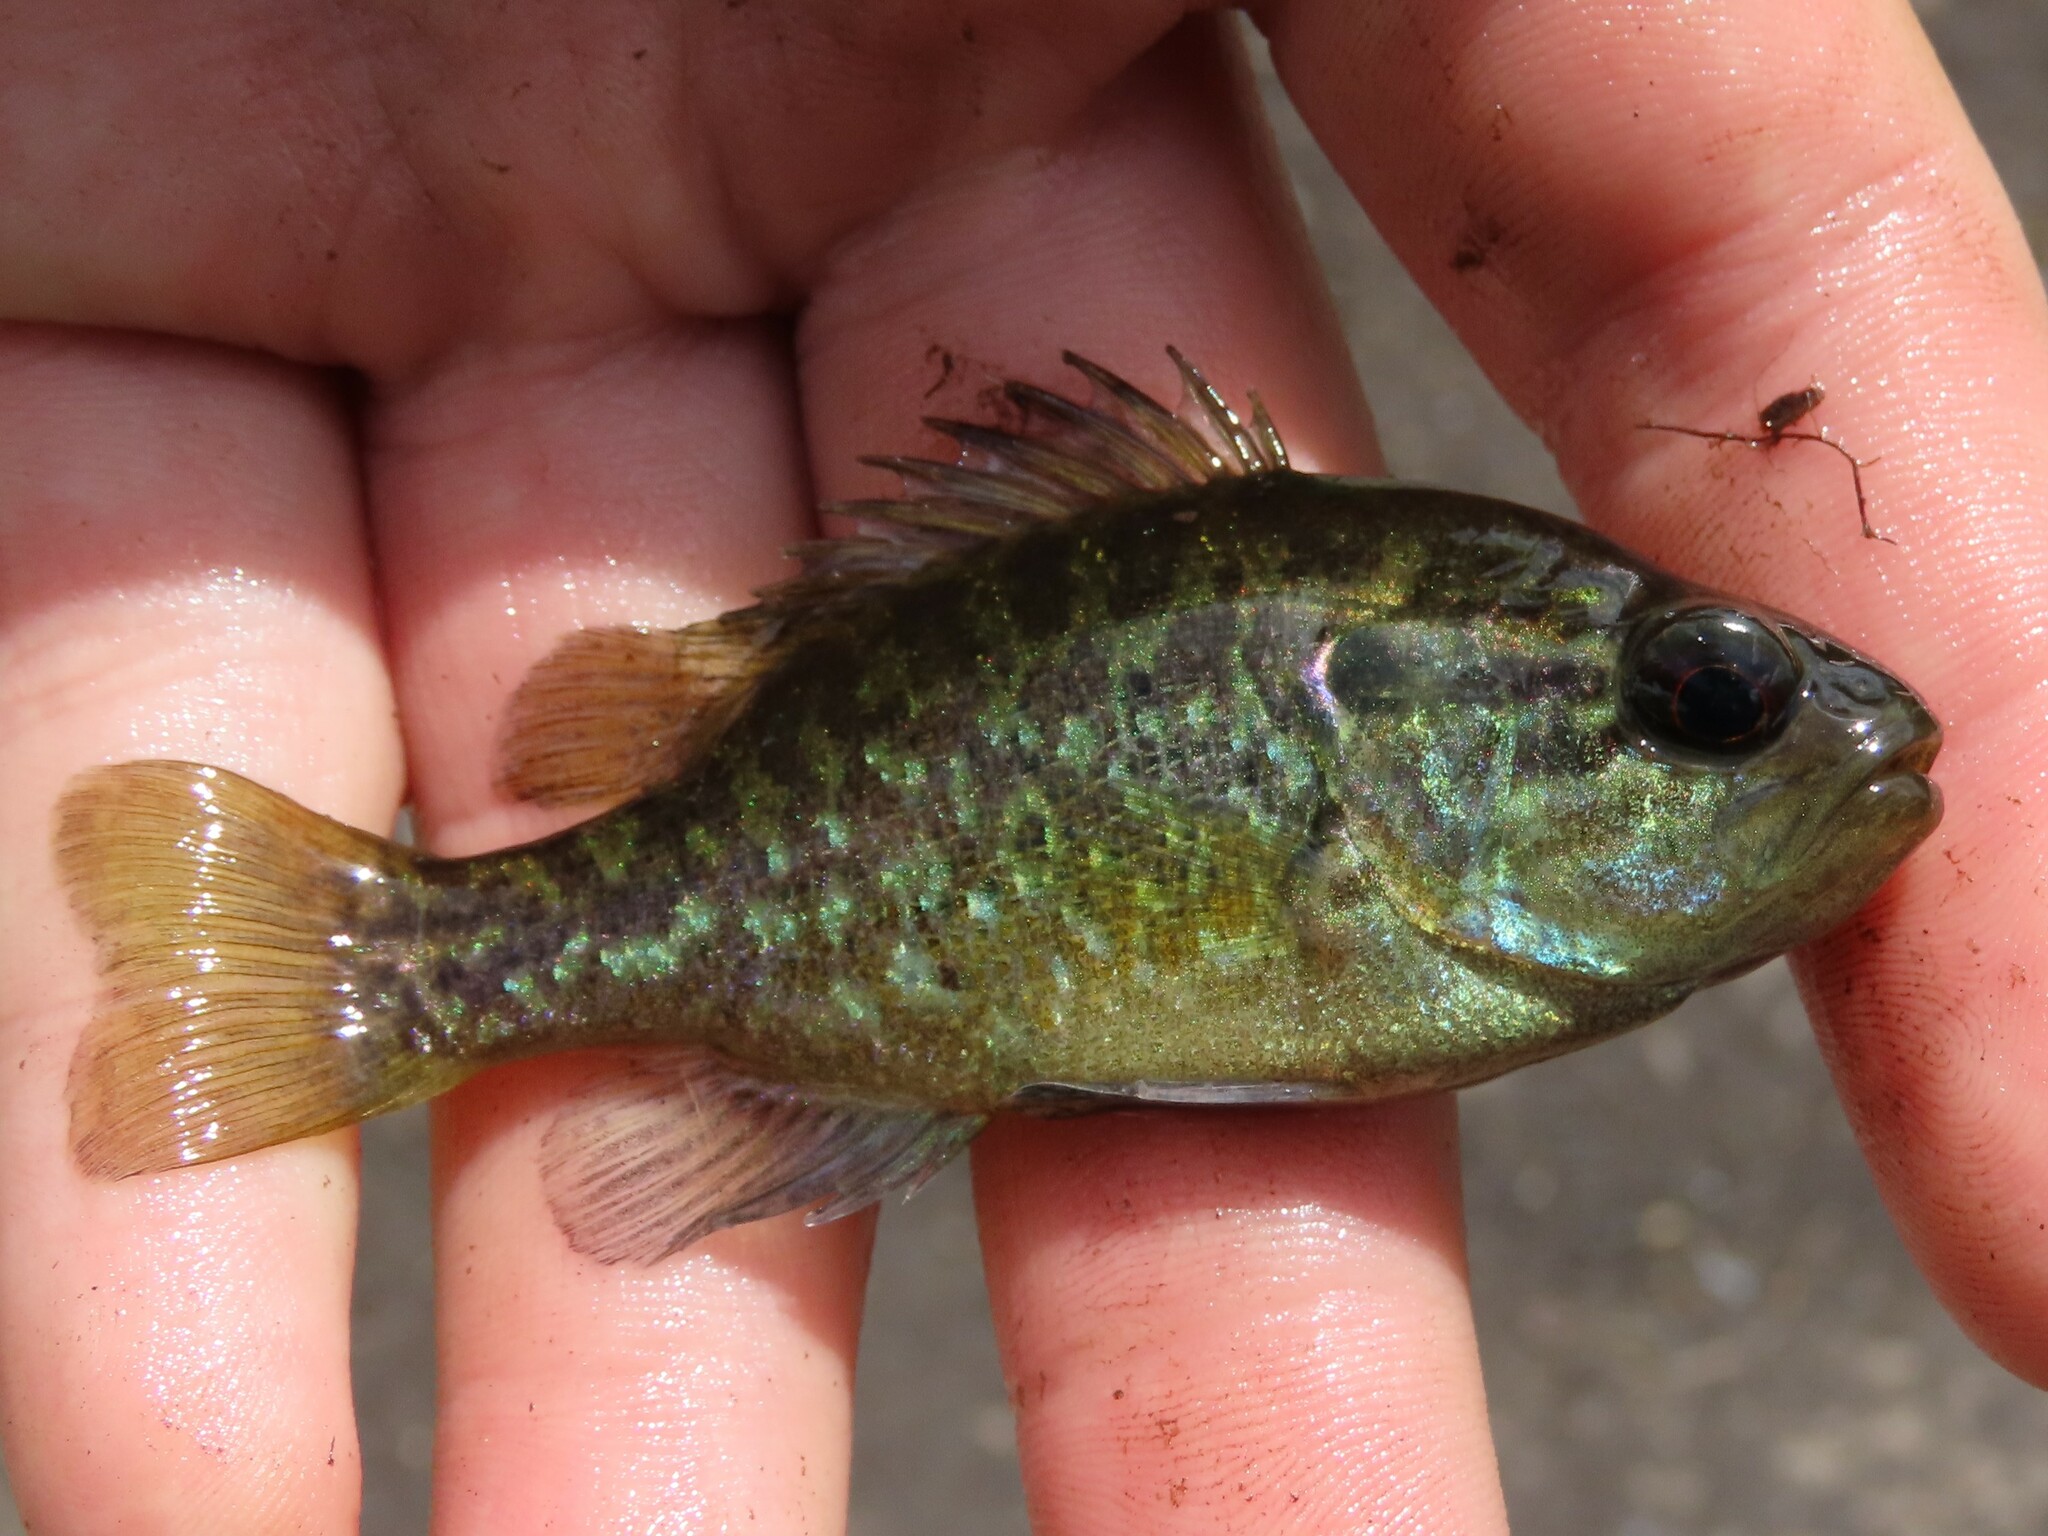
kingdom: Animalia
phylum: Chordata
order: Perciformes
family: Centrarchidae
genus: Lepomis
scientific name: Lepomis gulosus
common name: Warmouth
